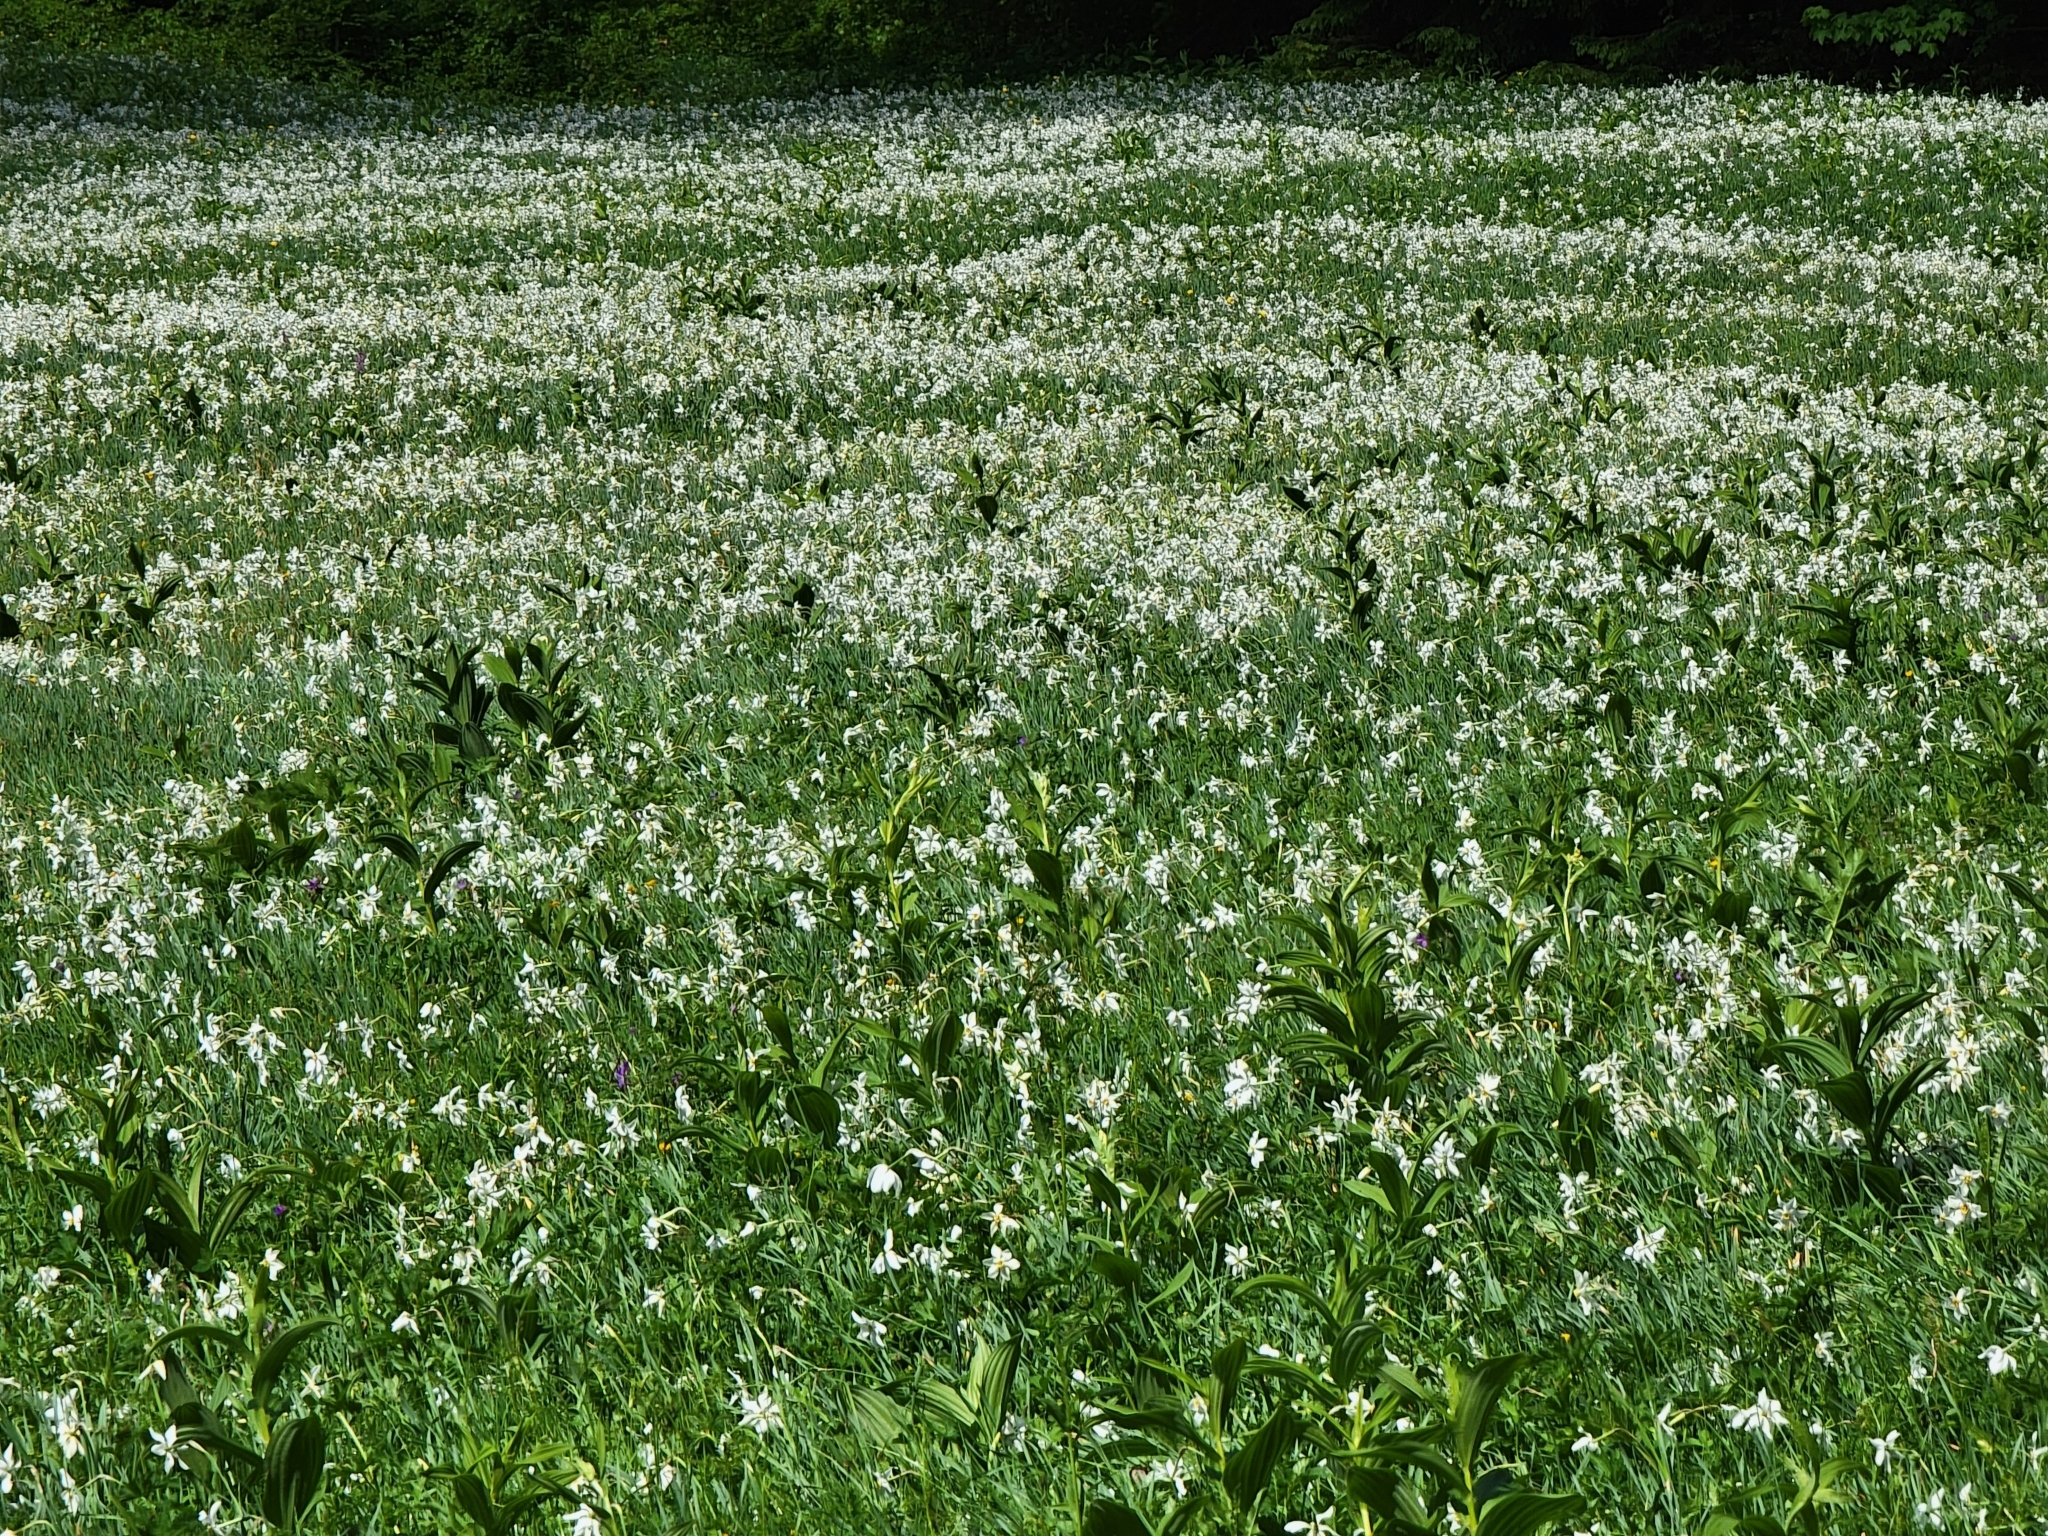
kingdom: Plantae
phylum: Tracheophyta
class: Liliopsida
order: Asparagales
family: Amaryllidaceae
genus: Narcissus
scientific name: Narcissus poeticus
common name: Pheasant's-eye daffodil
